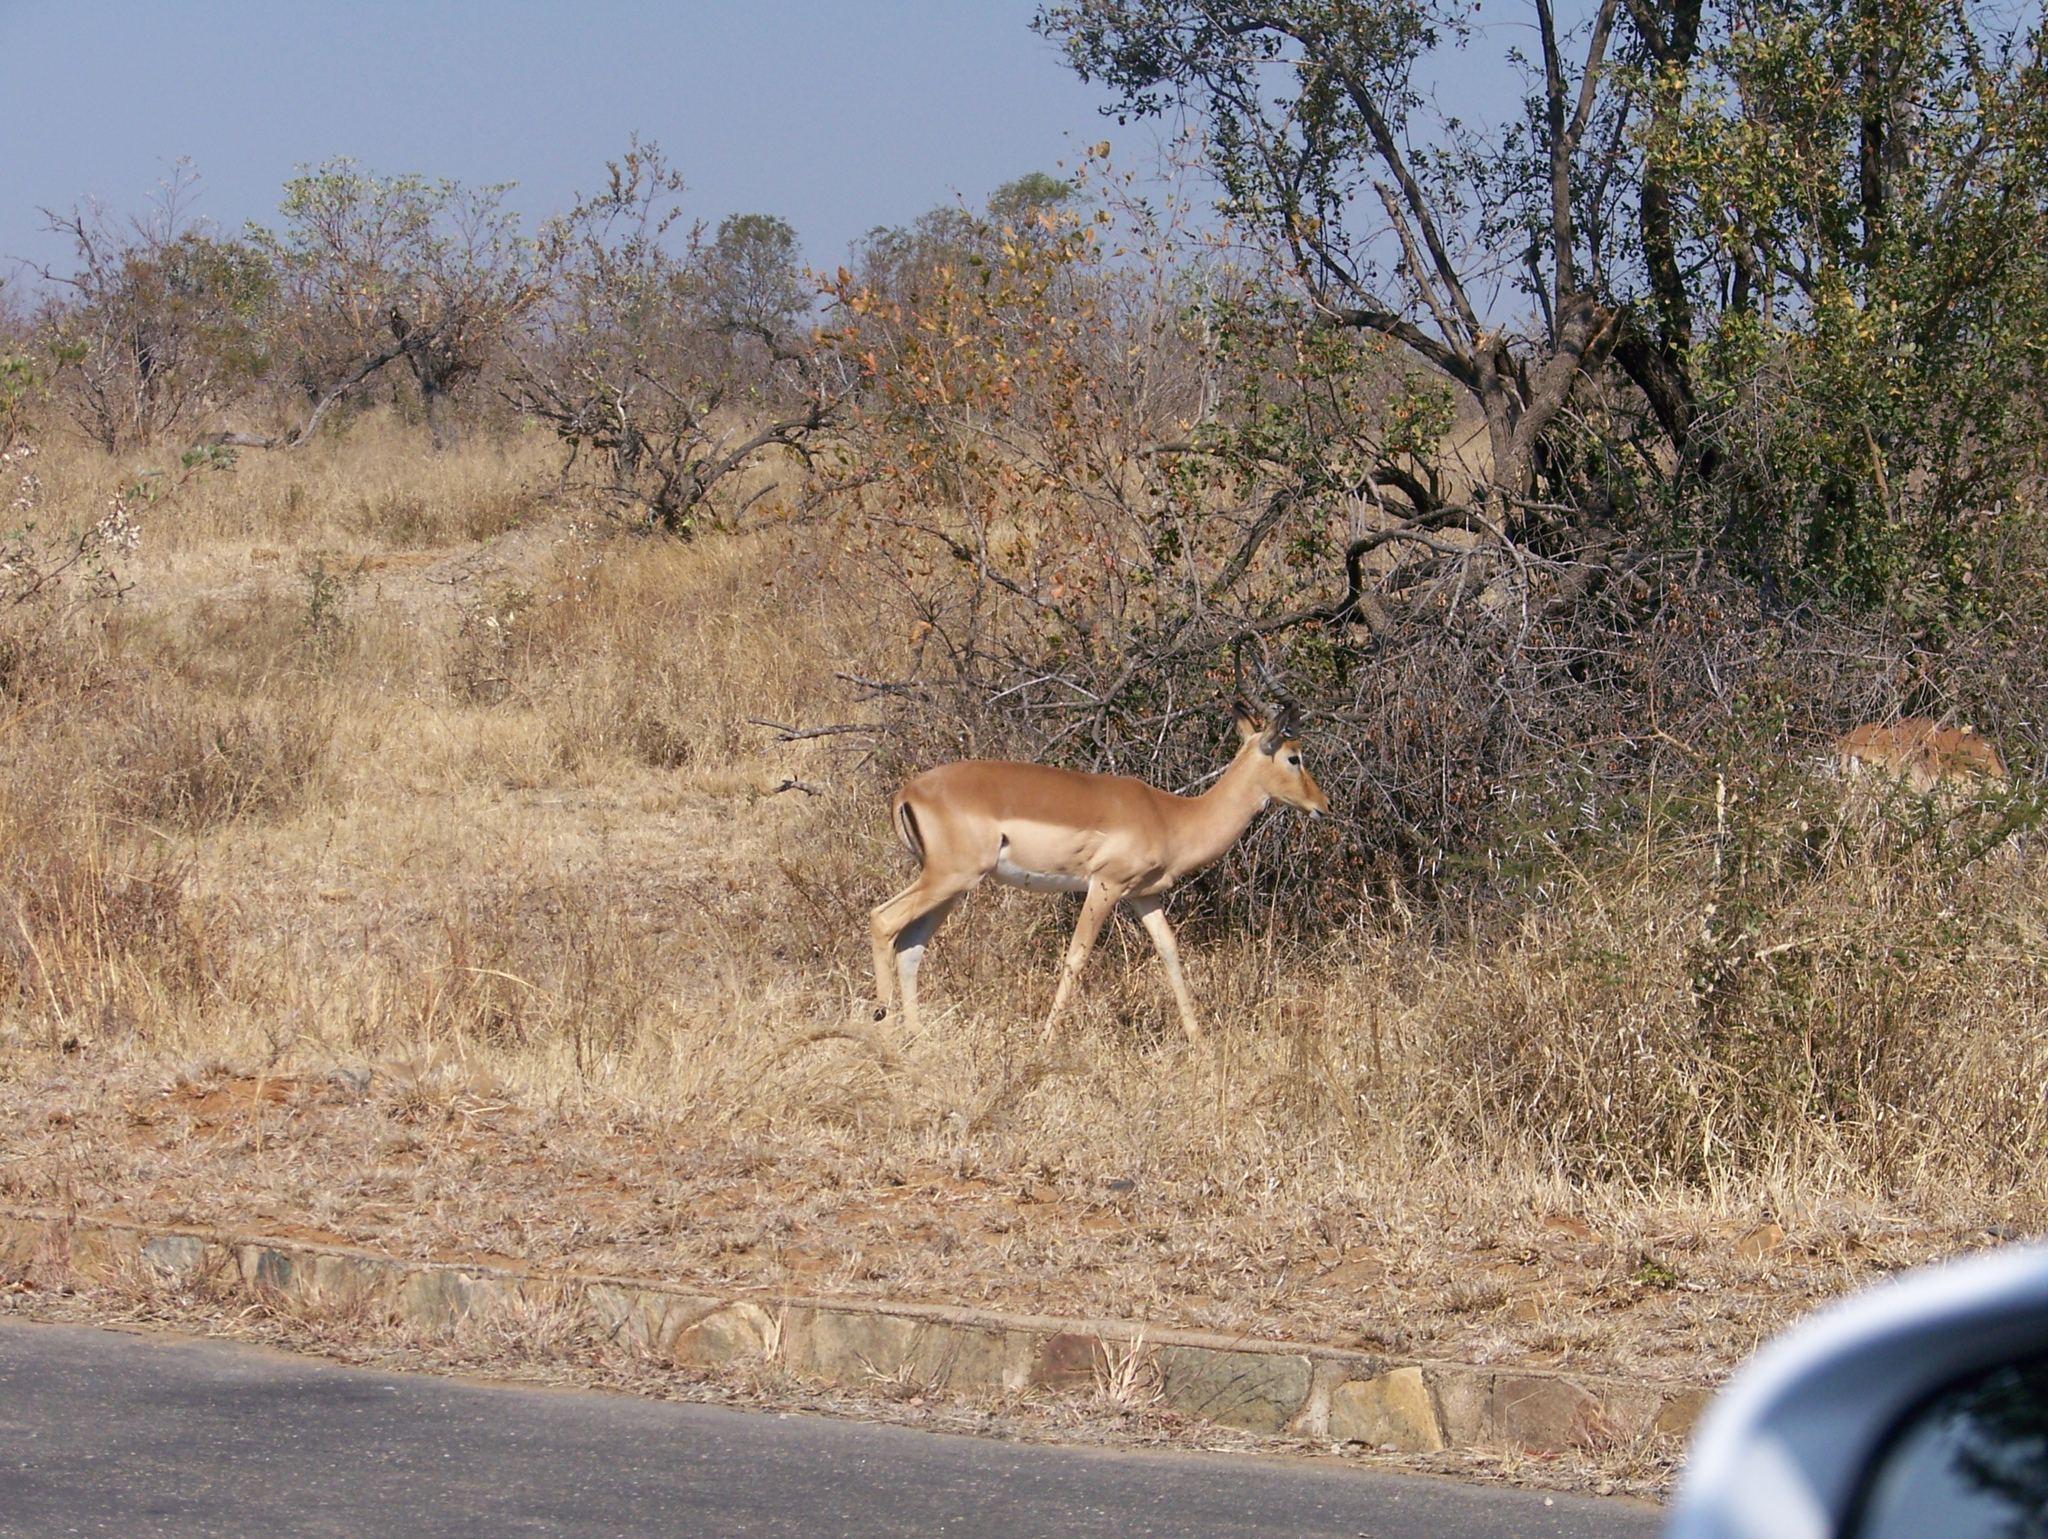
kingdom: Animalia
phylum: Chordata
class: Mammalia
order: Artiodactyla
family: Bovidae
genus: Aepyceros
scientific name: Aepyceros melampus
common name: Impala
